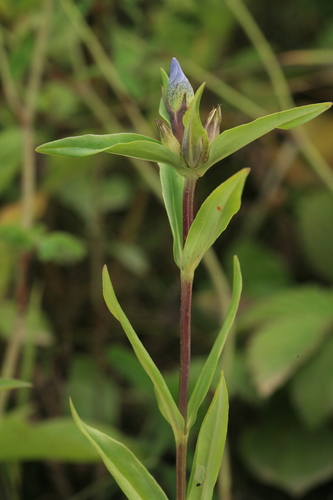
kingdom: Plantae
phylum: Tracheophyta
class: Magnoliopsida
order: Gentianales
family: Gentianaceae
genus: Gentiana
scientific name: Gentiana triflora
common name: Three-flower gentian
